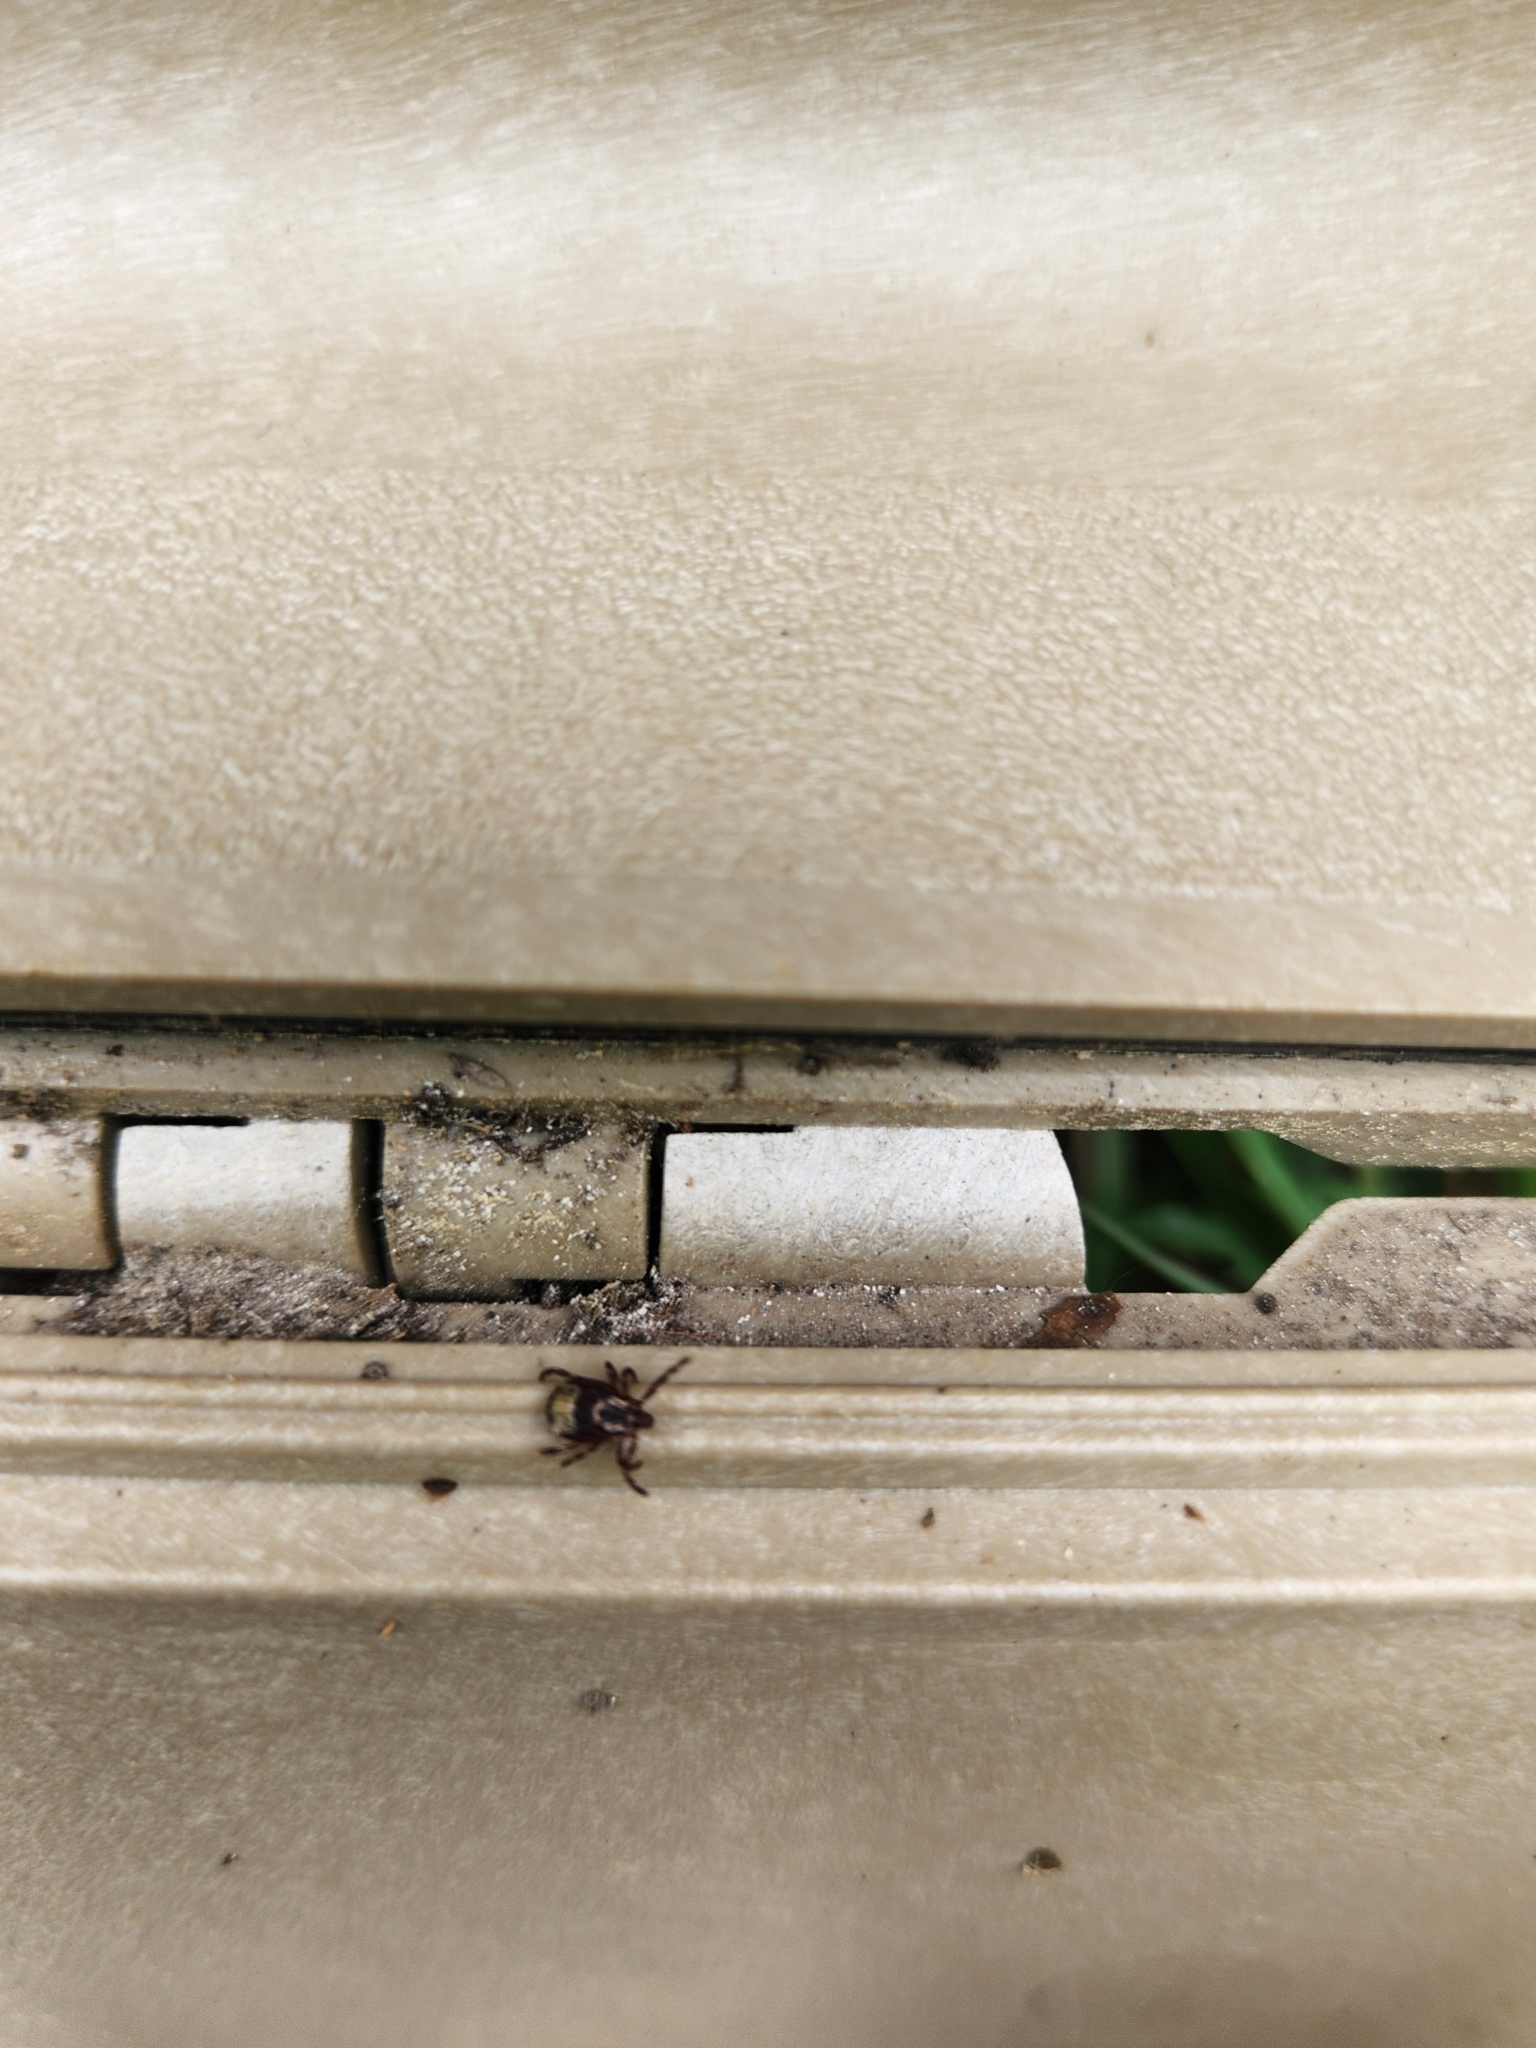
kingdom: Animalia
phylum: Arthropoda
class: Arachnida
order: Ixodida
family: Ixodidae
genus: Dermacentor
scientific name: Dermacentor variabilis
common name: American dog tick
